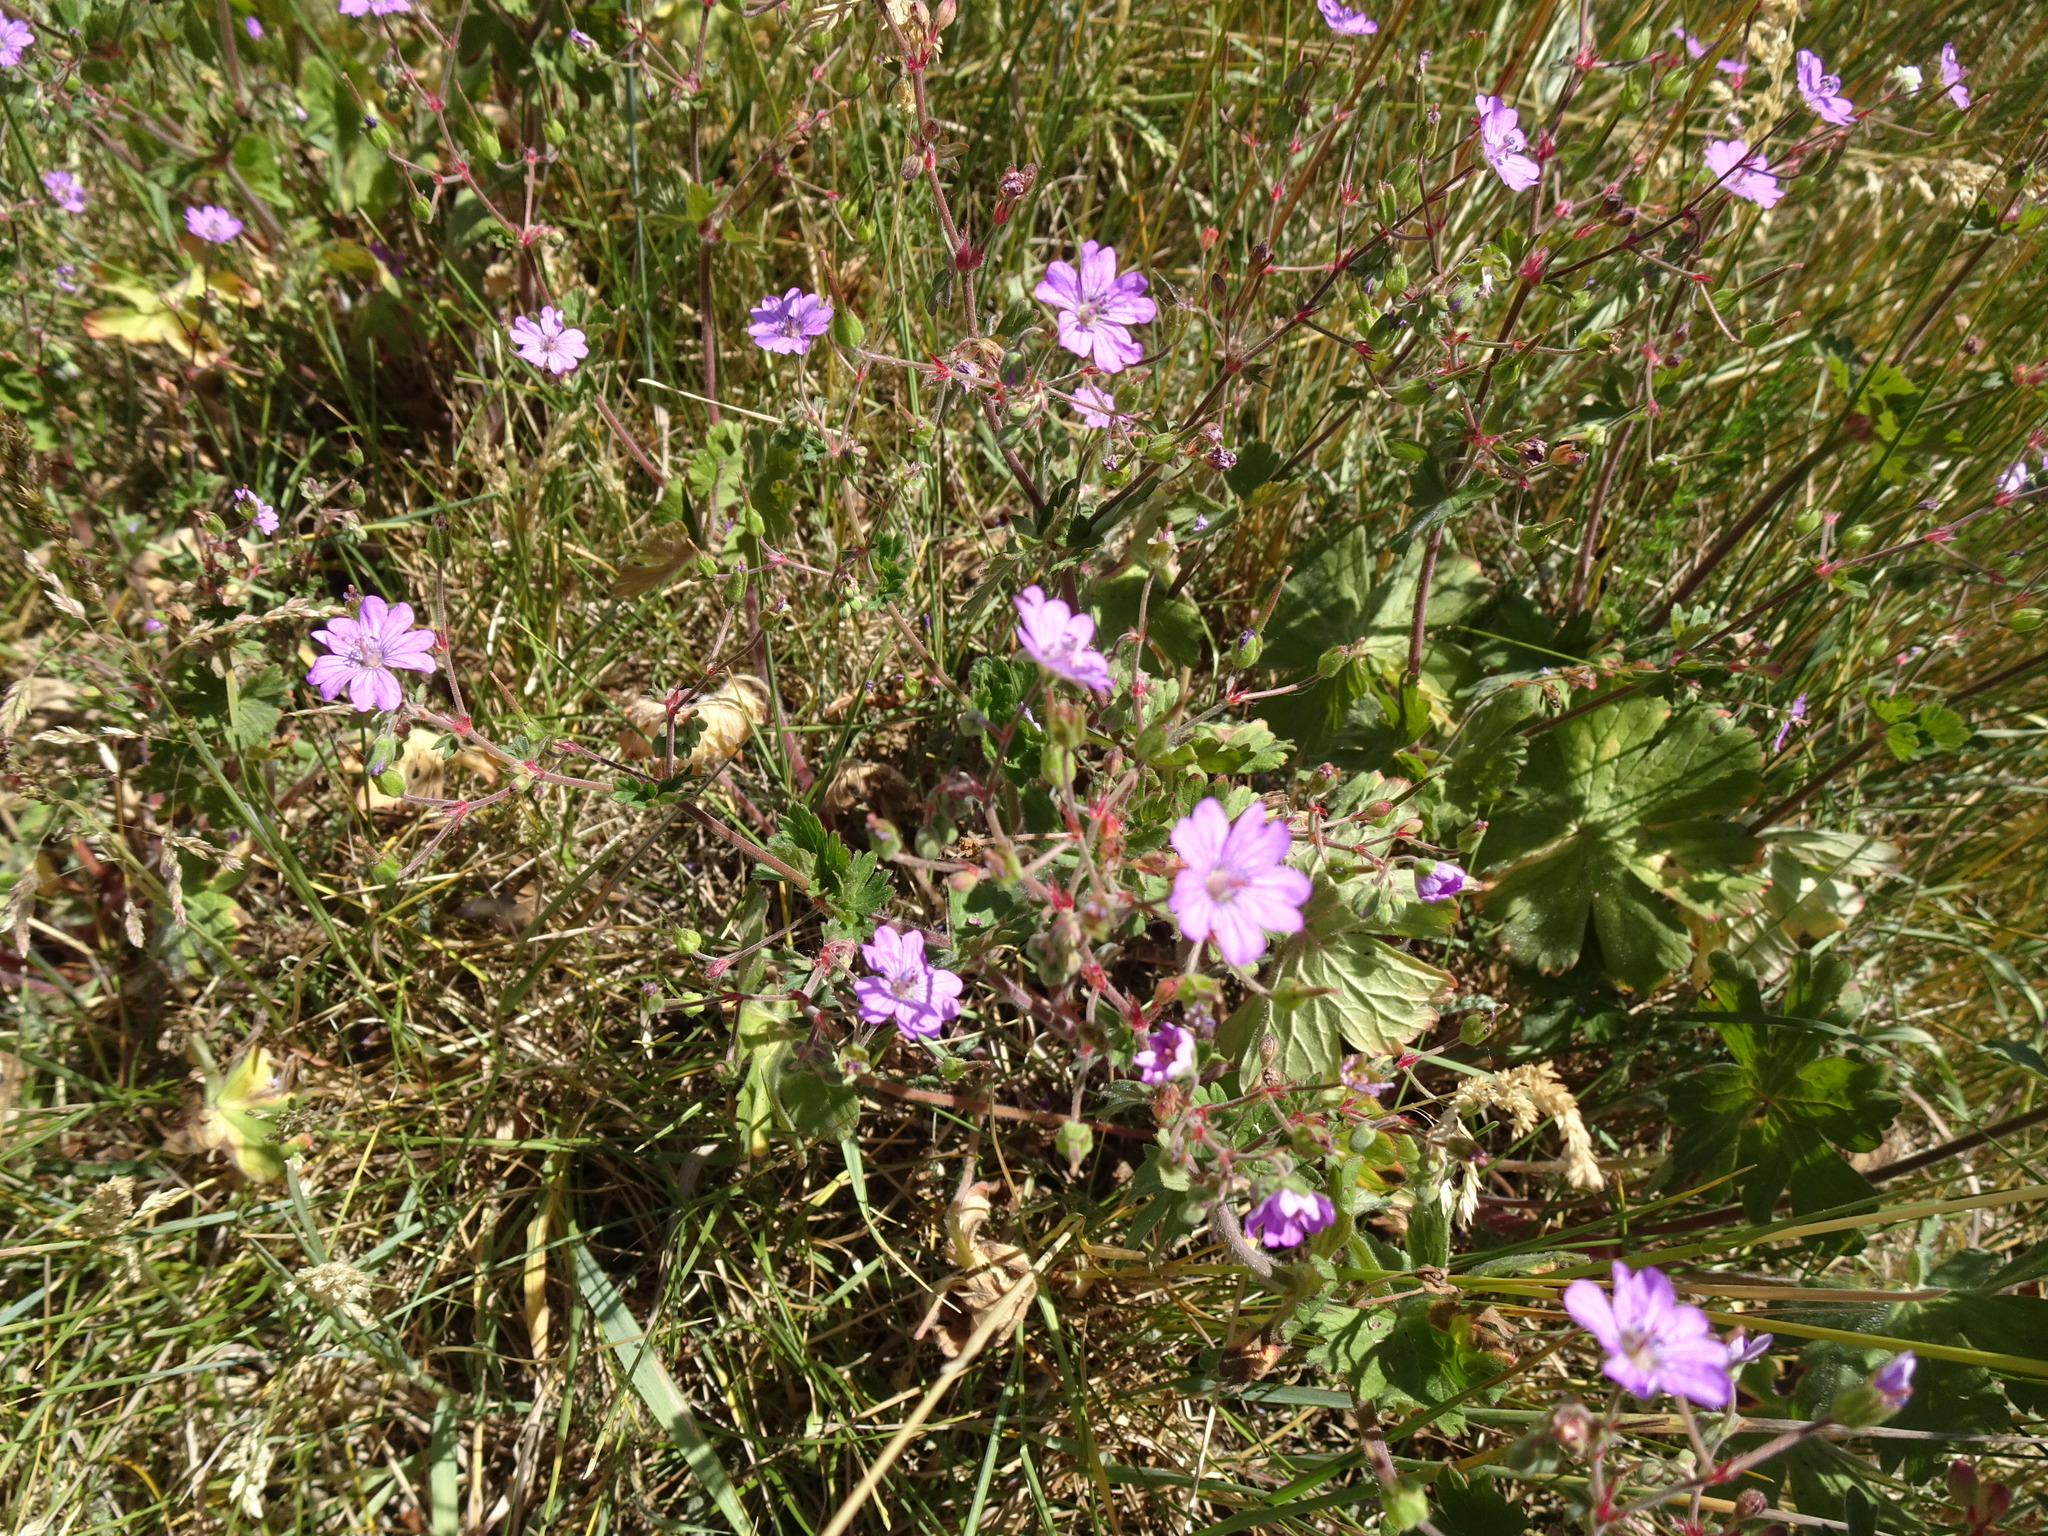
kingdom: Plantae
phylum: Tracheophyta
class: Magnoliopsida
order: Geraniales
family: Geraniaceae
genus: Geranium
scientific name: Geranium pyrenaicum
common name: Hedgerow crane's-bill
